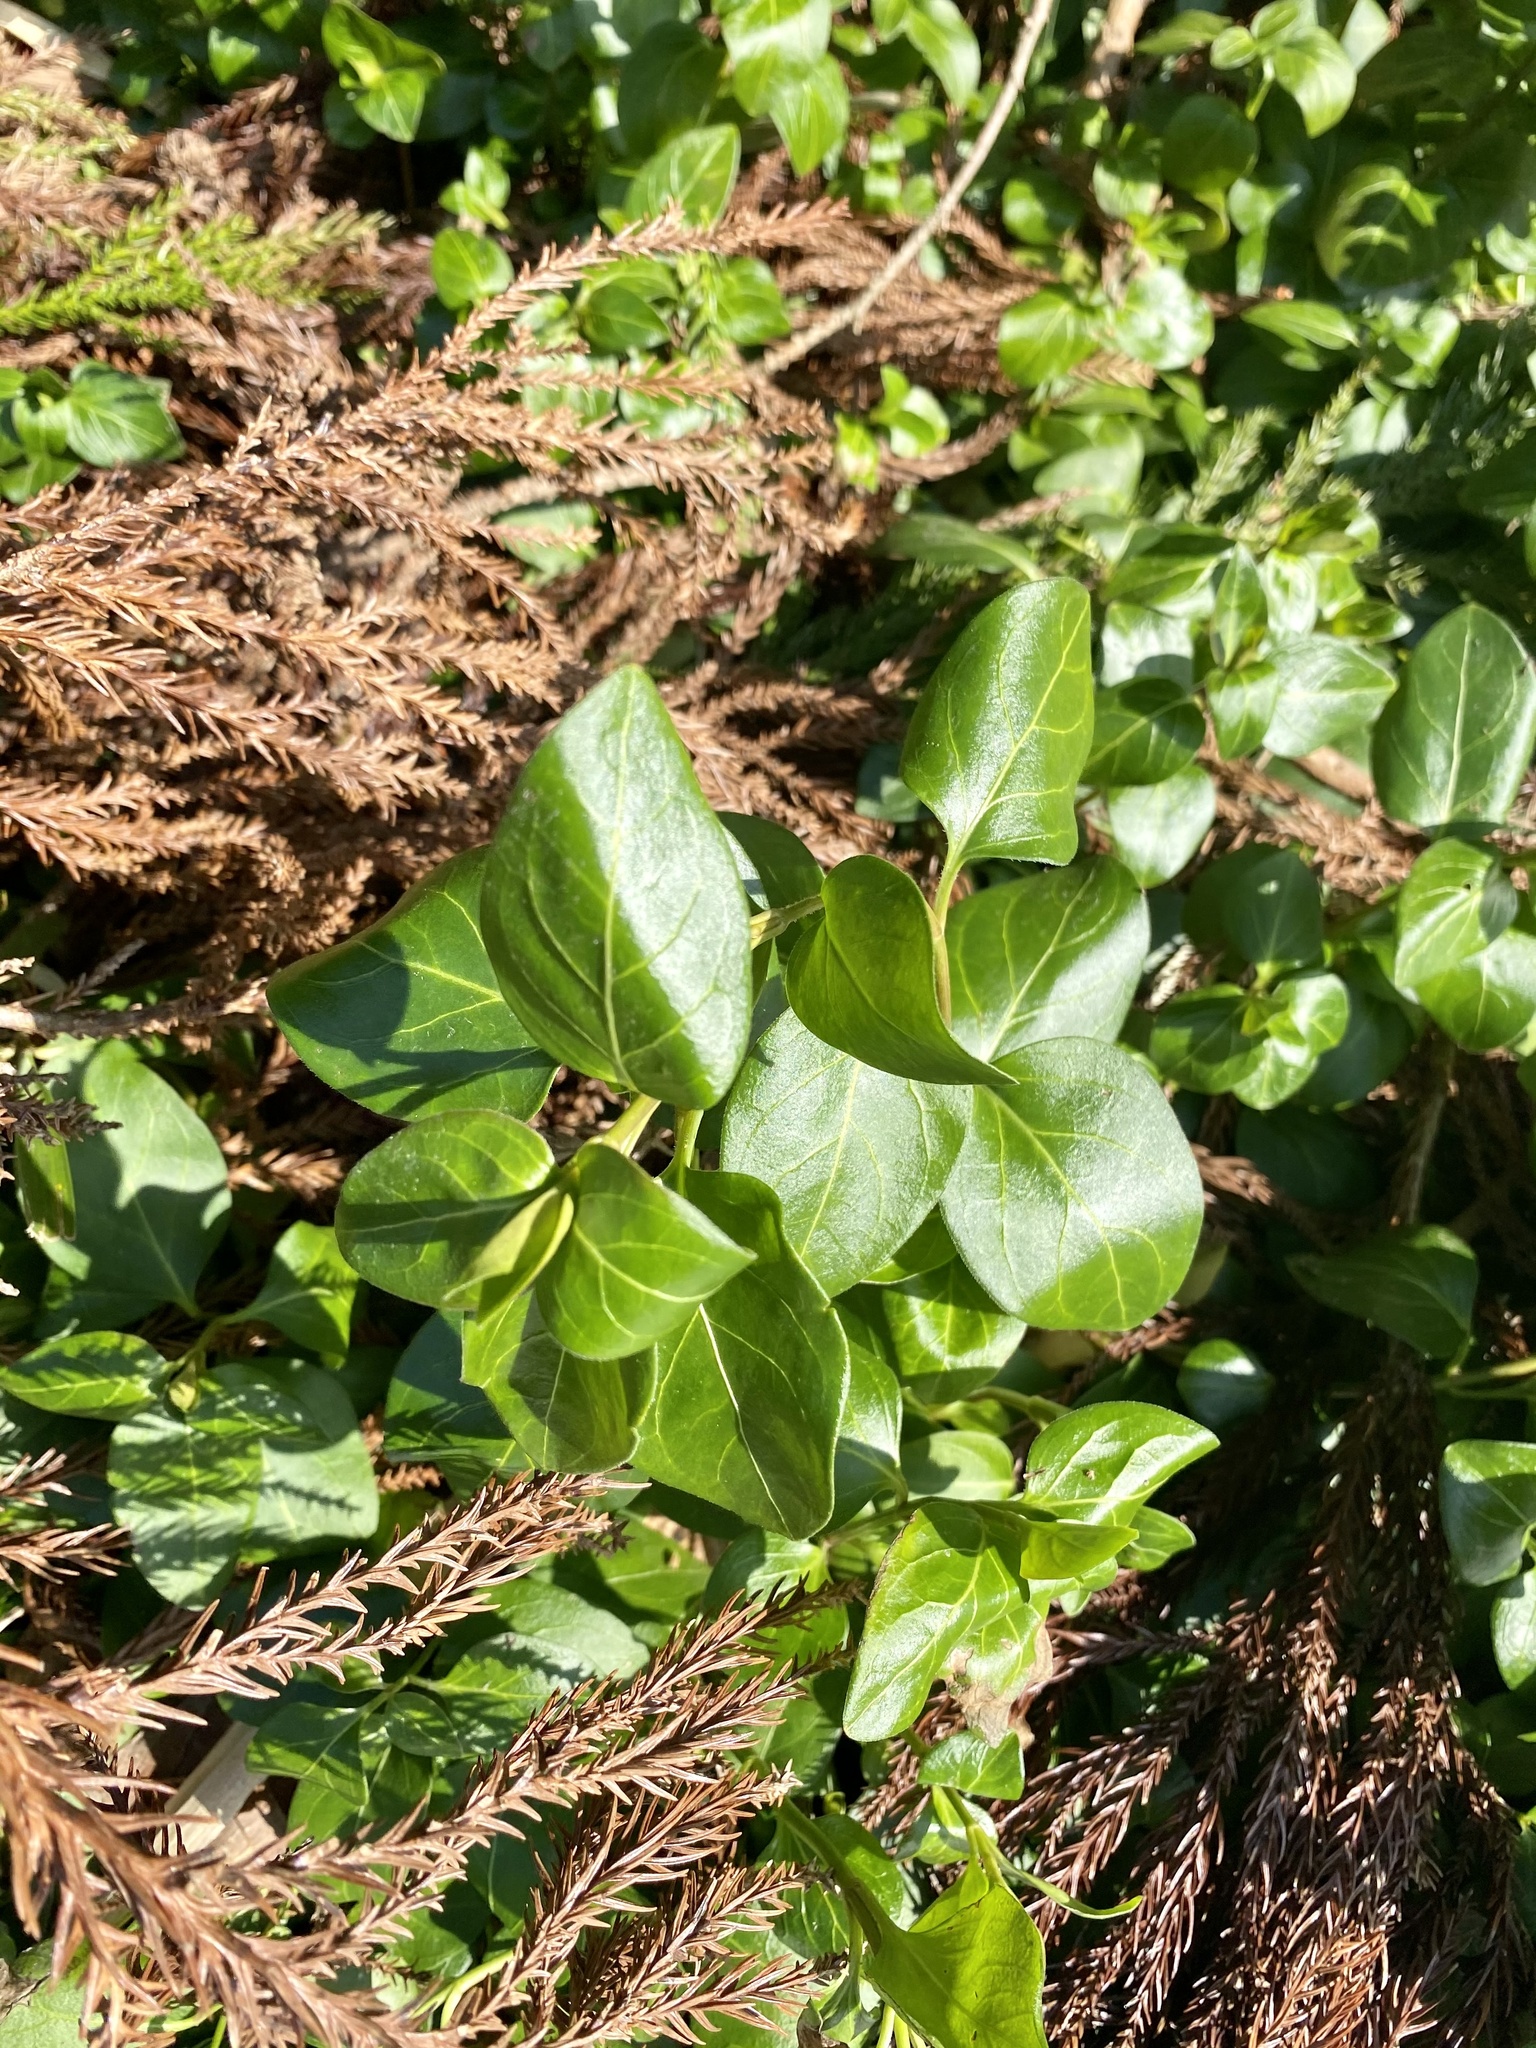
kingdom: Plantae
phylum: Tracheophyta
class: Magnoliopsida
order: Gentianales
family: Apocynaceae
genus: Vinca
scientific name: Vinca major
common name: Greater periwinkle
